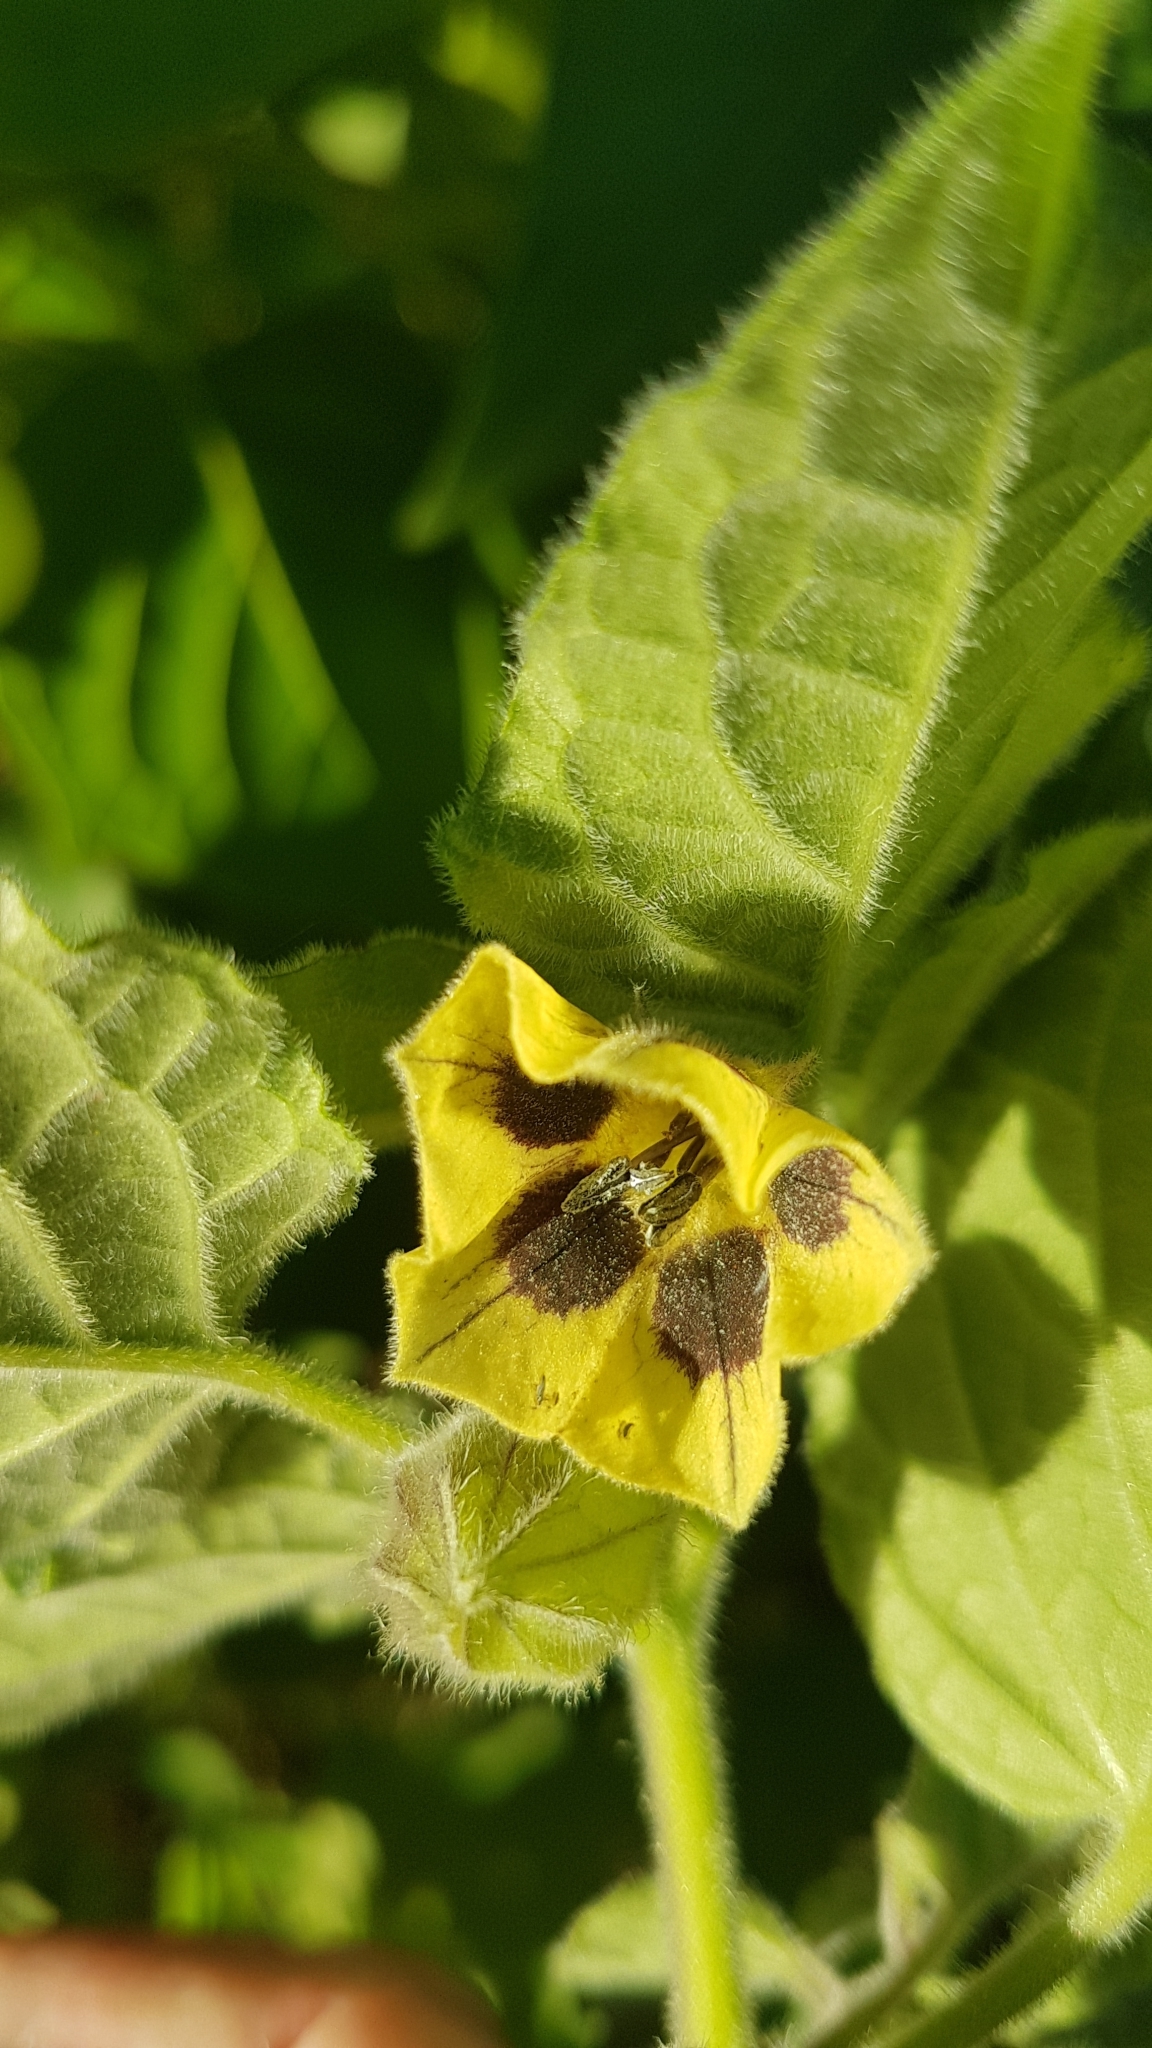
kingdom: Plantae
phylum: Tracheophyta
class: Magnoliopsida
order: Solanales
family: Solanaceae
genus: Physalis
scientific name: Physalis peruviana
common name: Cape-gooseberry
